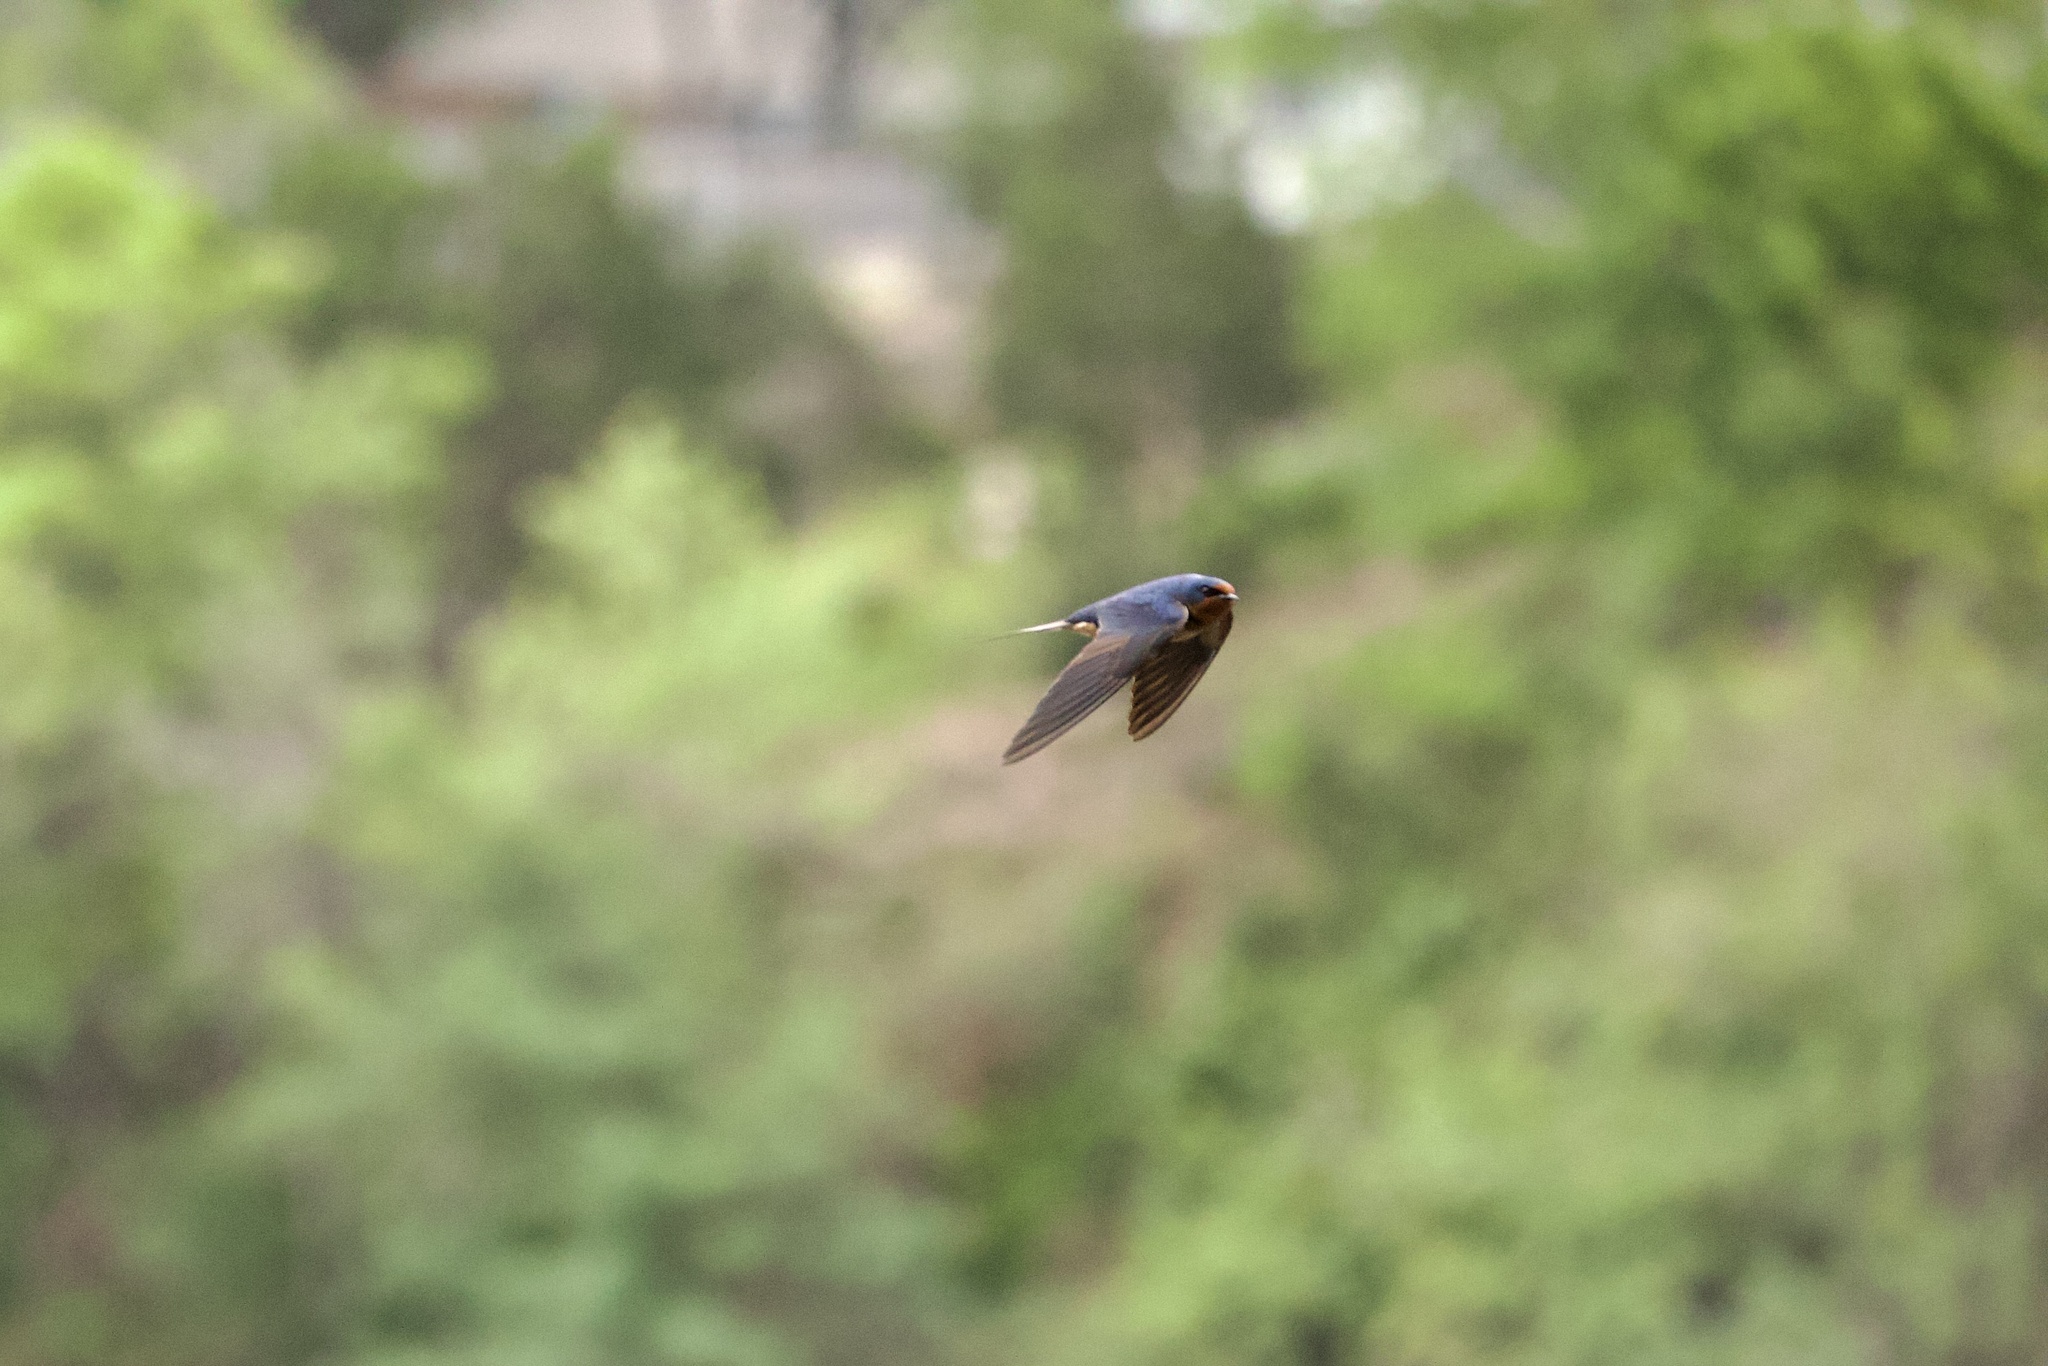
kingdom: Animalia
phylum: Chordata
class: Aves
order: Passeriformes
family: Hirundinidae
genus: Hirundo
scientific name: Hirundo rustica
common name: Barn swallow
